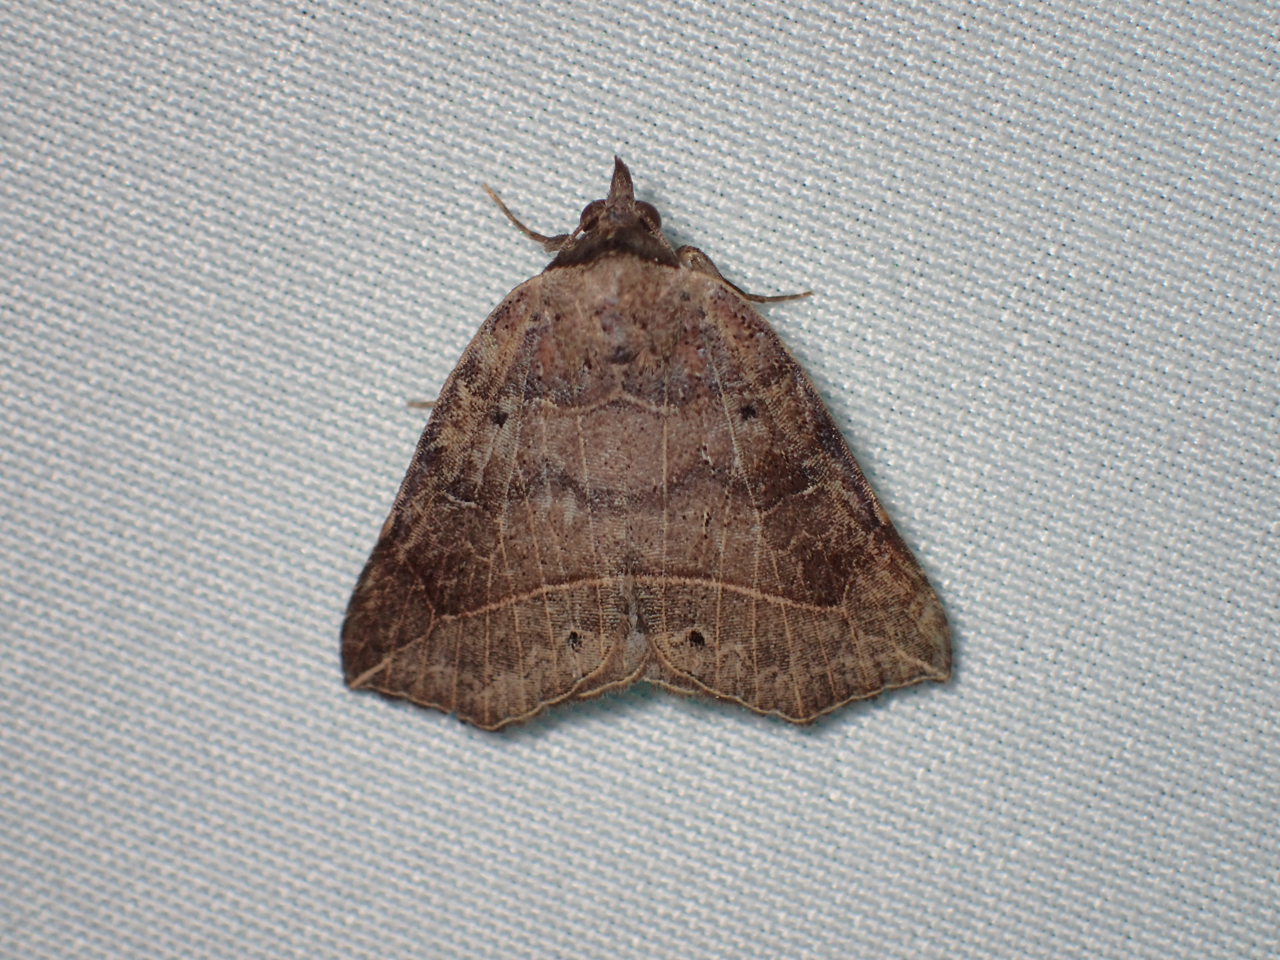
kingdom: Animalia
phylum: Arthropoda
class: Insecta
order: Lepidoptera
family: Erebidae
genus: Isogona
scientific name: Isogona tenuis
